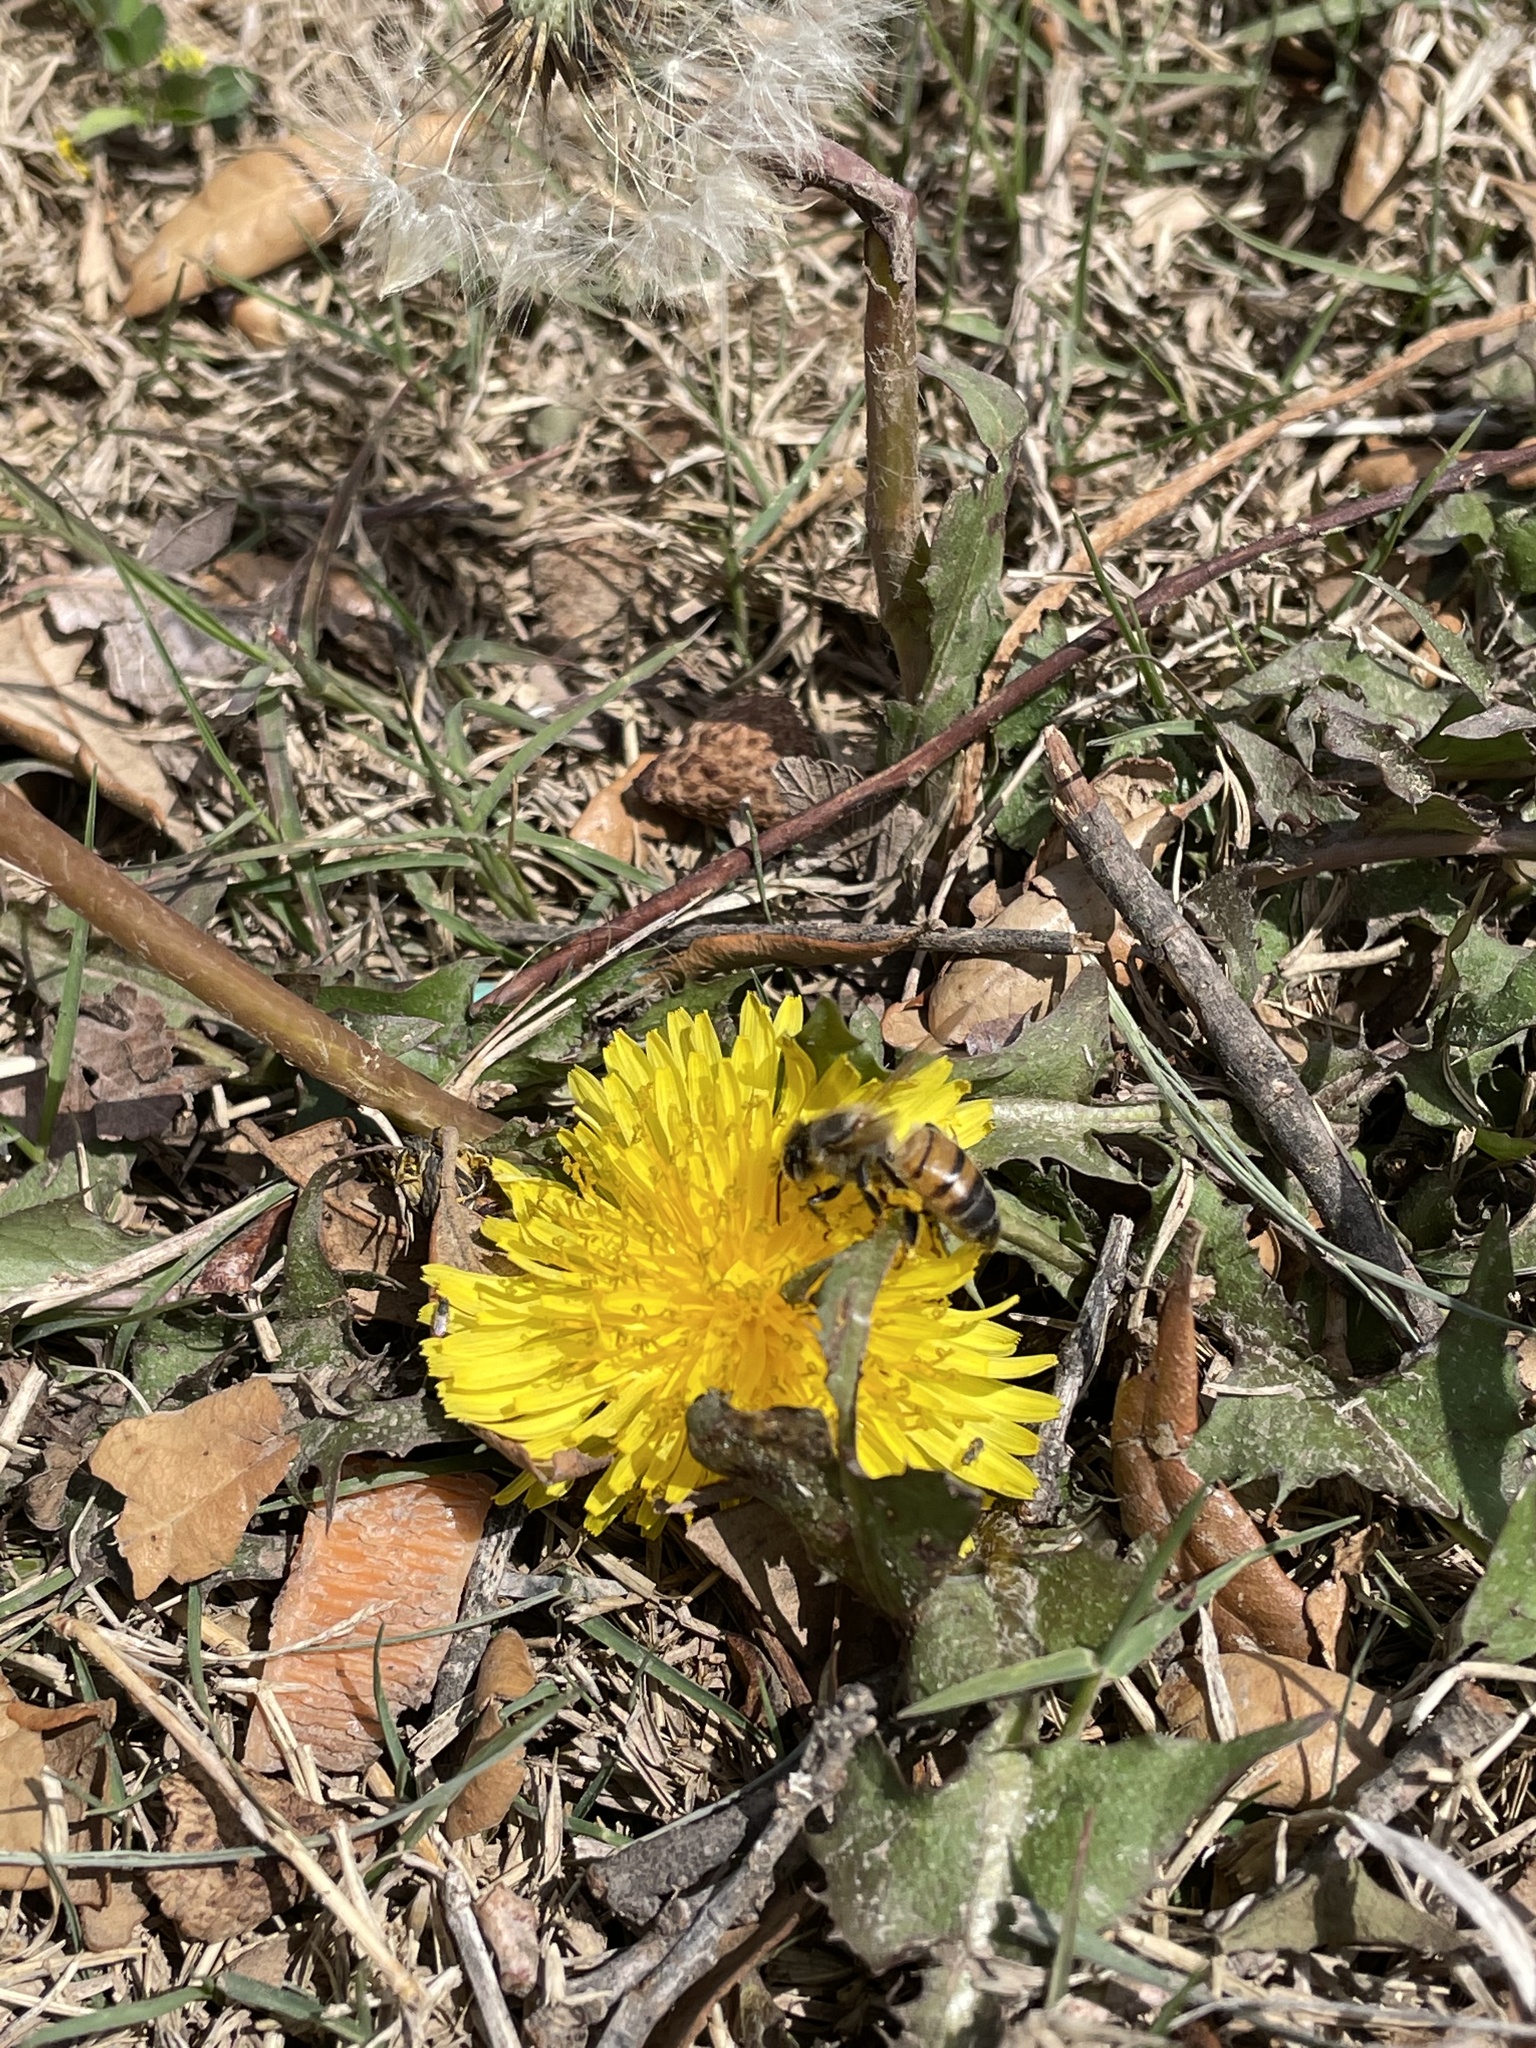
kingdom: Animalia
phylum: Arthropoda
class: Insecta
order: Hymenoptera
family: Apidae
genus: Apis
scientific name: Apis mellifera
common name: Honey bee
